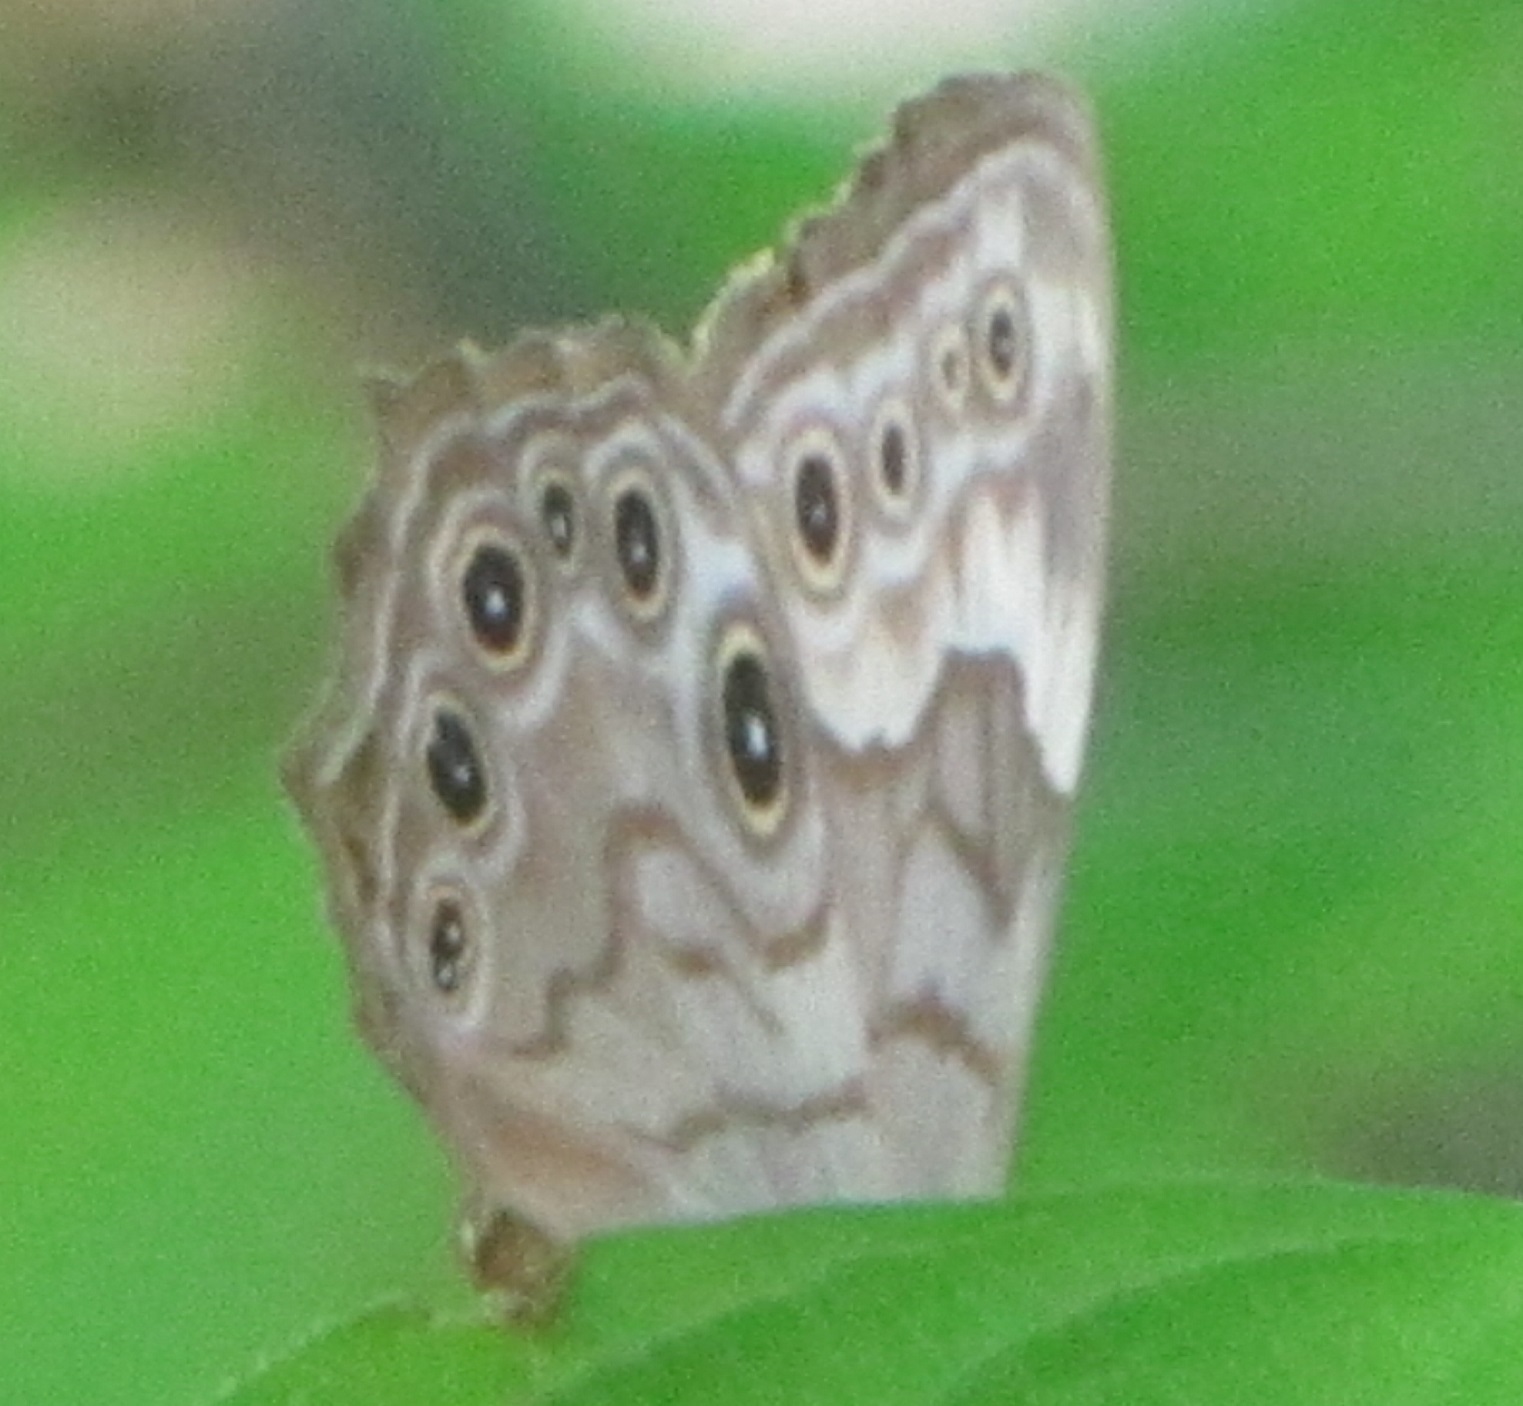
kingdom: Animalia
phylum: Arthropoda
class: Insecta
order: Lepidoptera
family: Nymphalidae
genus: Lethe
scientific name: Lethe creola
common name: Creole pearly-eye
